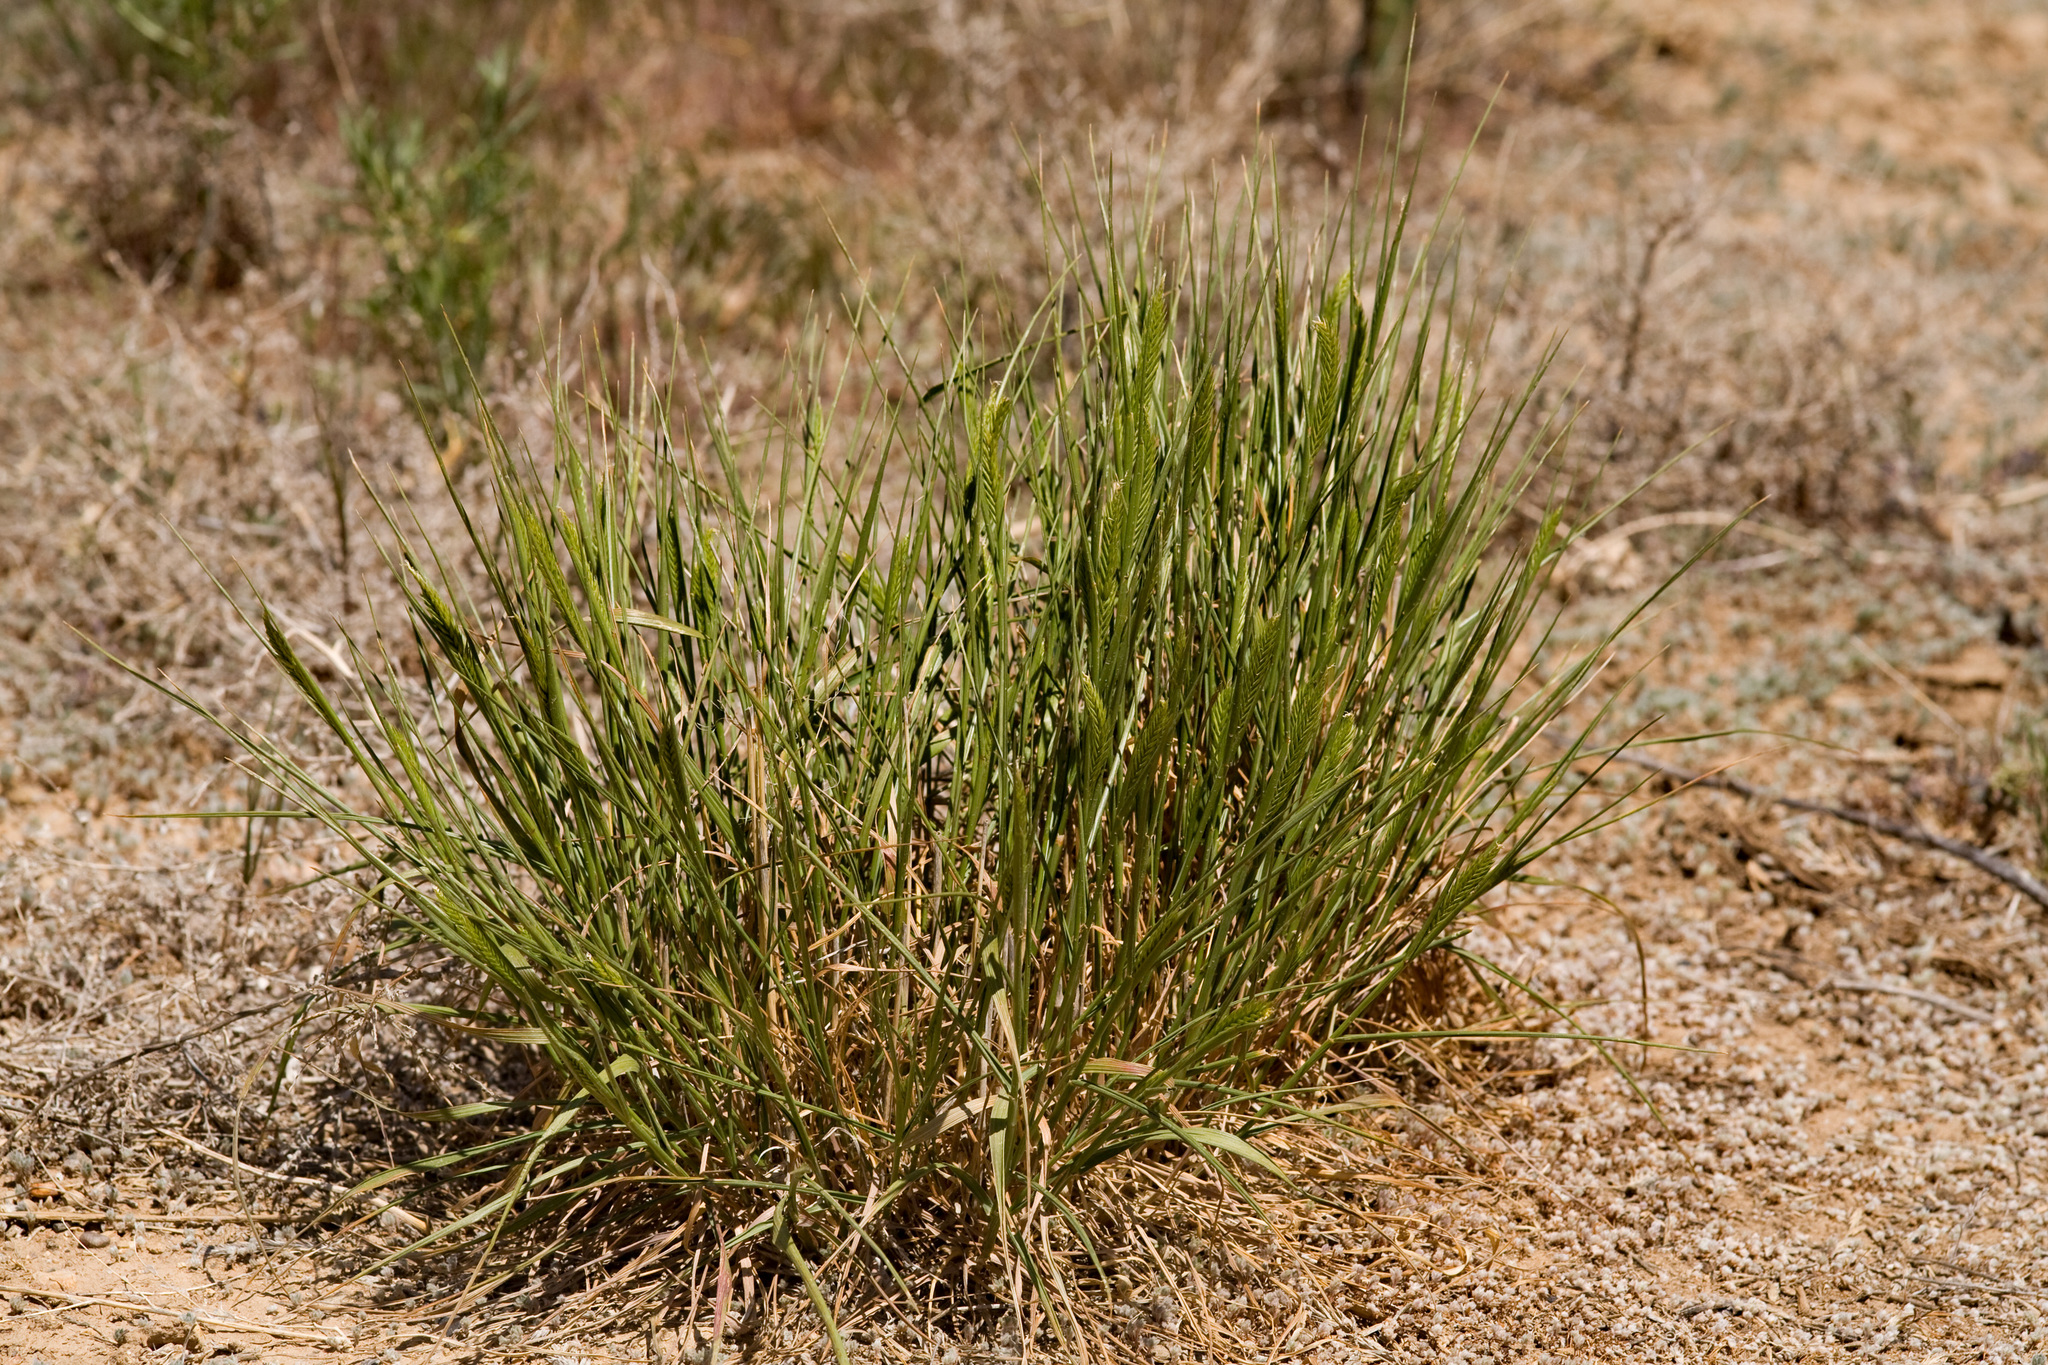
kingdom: Plantae
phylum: Tracheophyta
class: Liliopsida
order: Poales
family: Poaceae
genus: Agropyron
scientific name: Agropyron cristatum
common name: Crested wheatgrass
